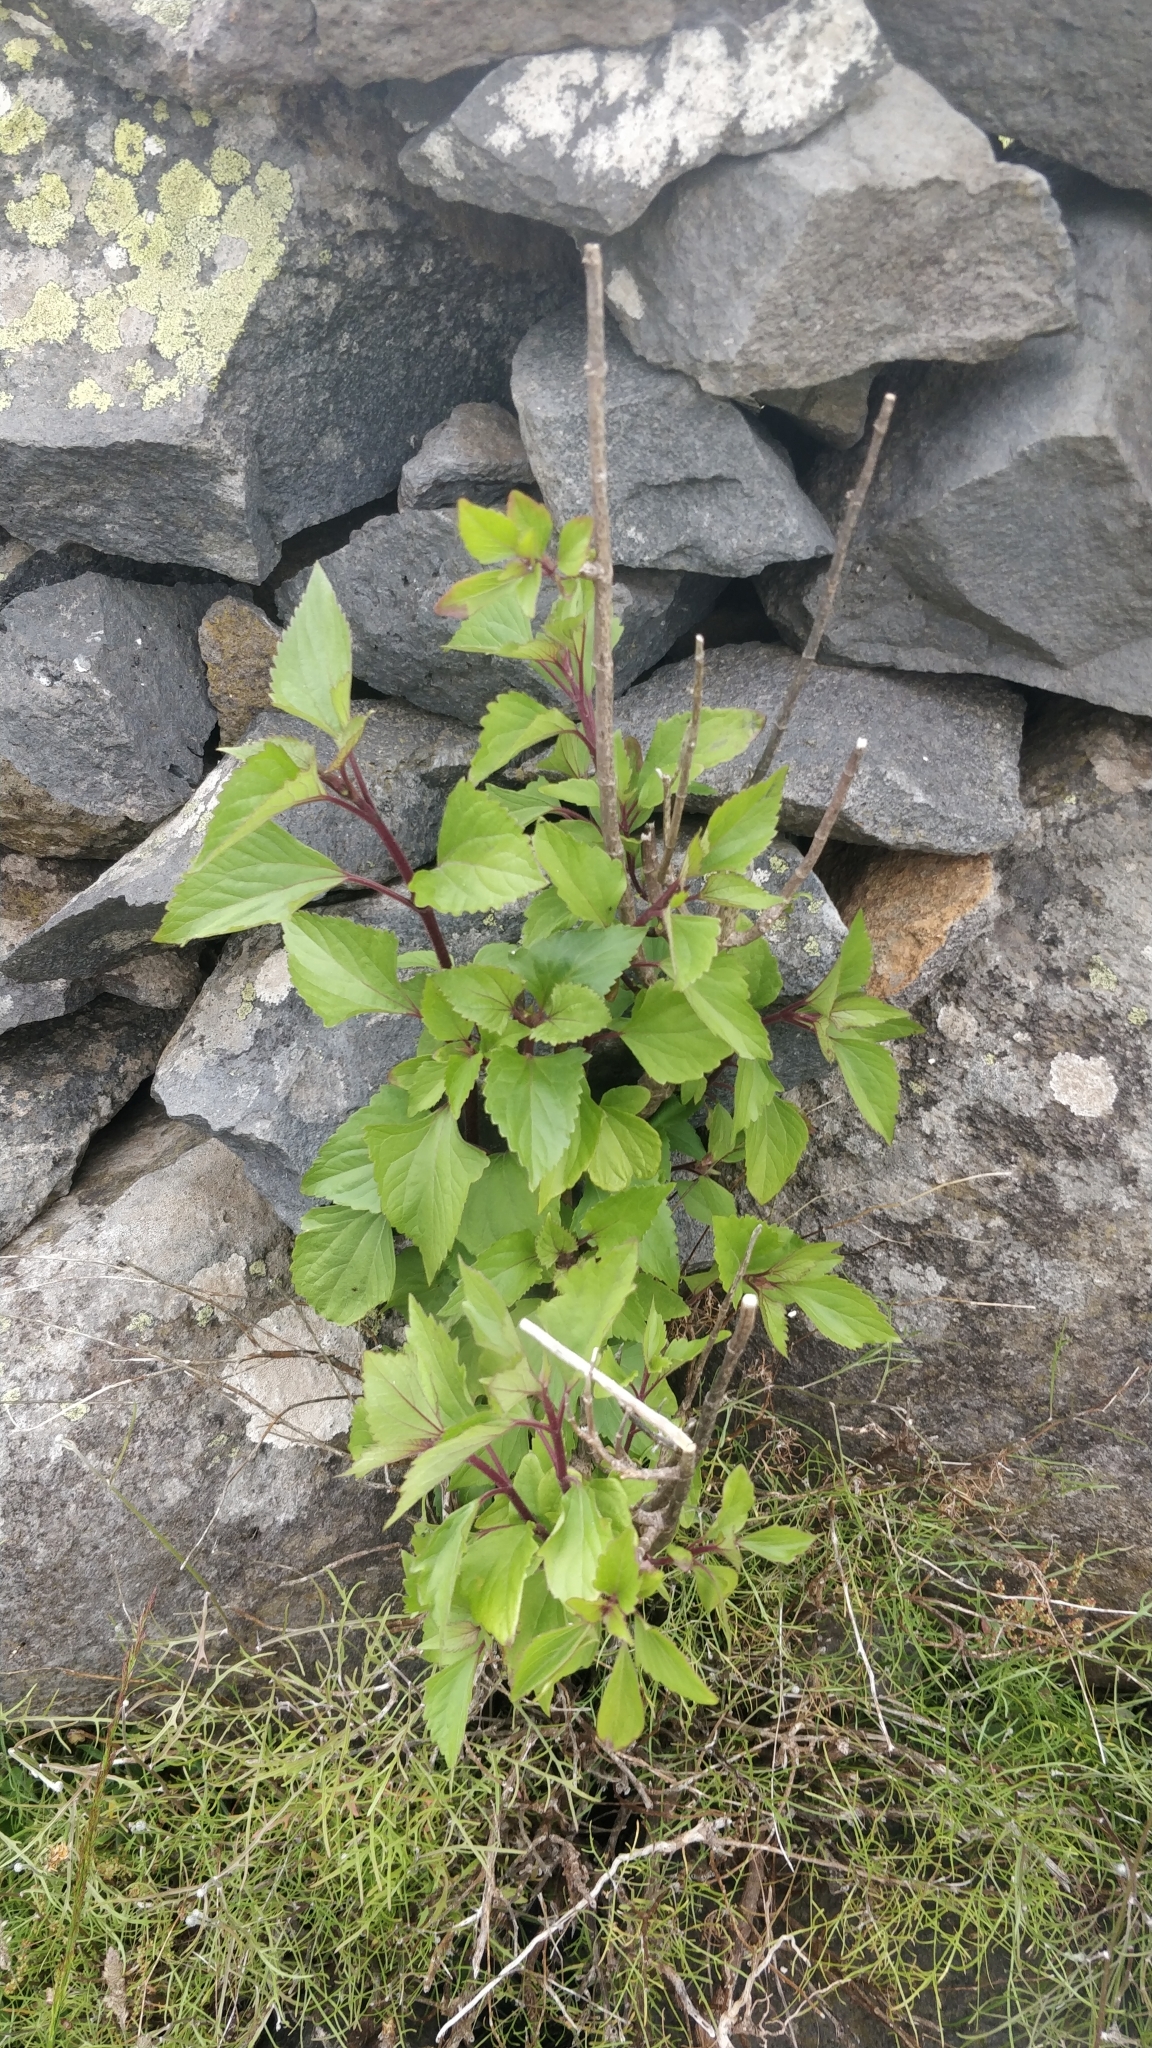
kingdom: Plantae
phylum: Tracheophyta
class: Magnoliopsida
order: Asterales
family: Asteraceae
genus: Ageratina
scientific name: Ageratina adenophora
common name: Sticky snakeroot
